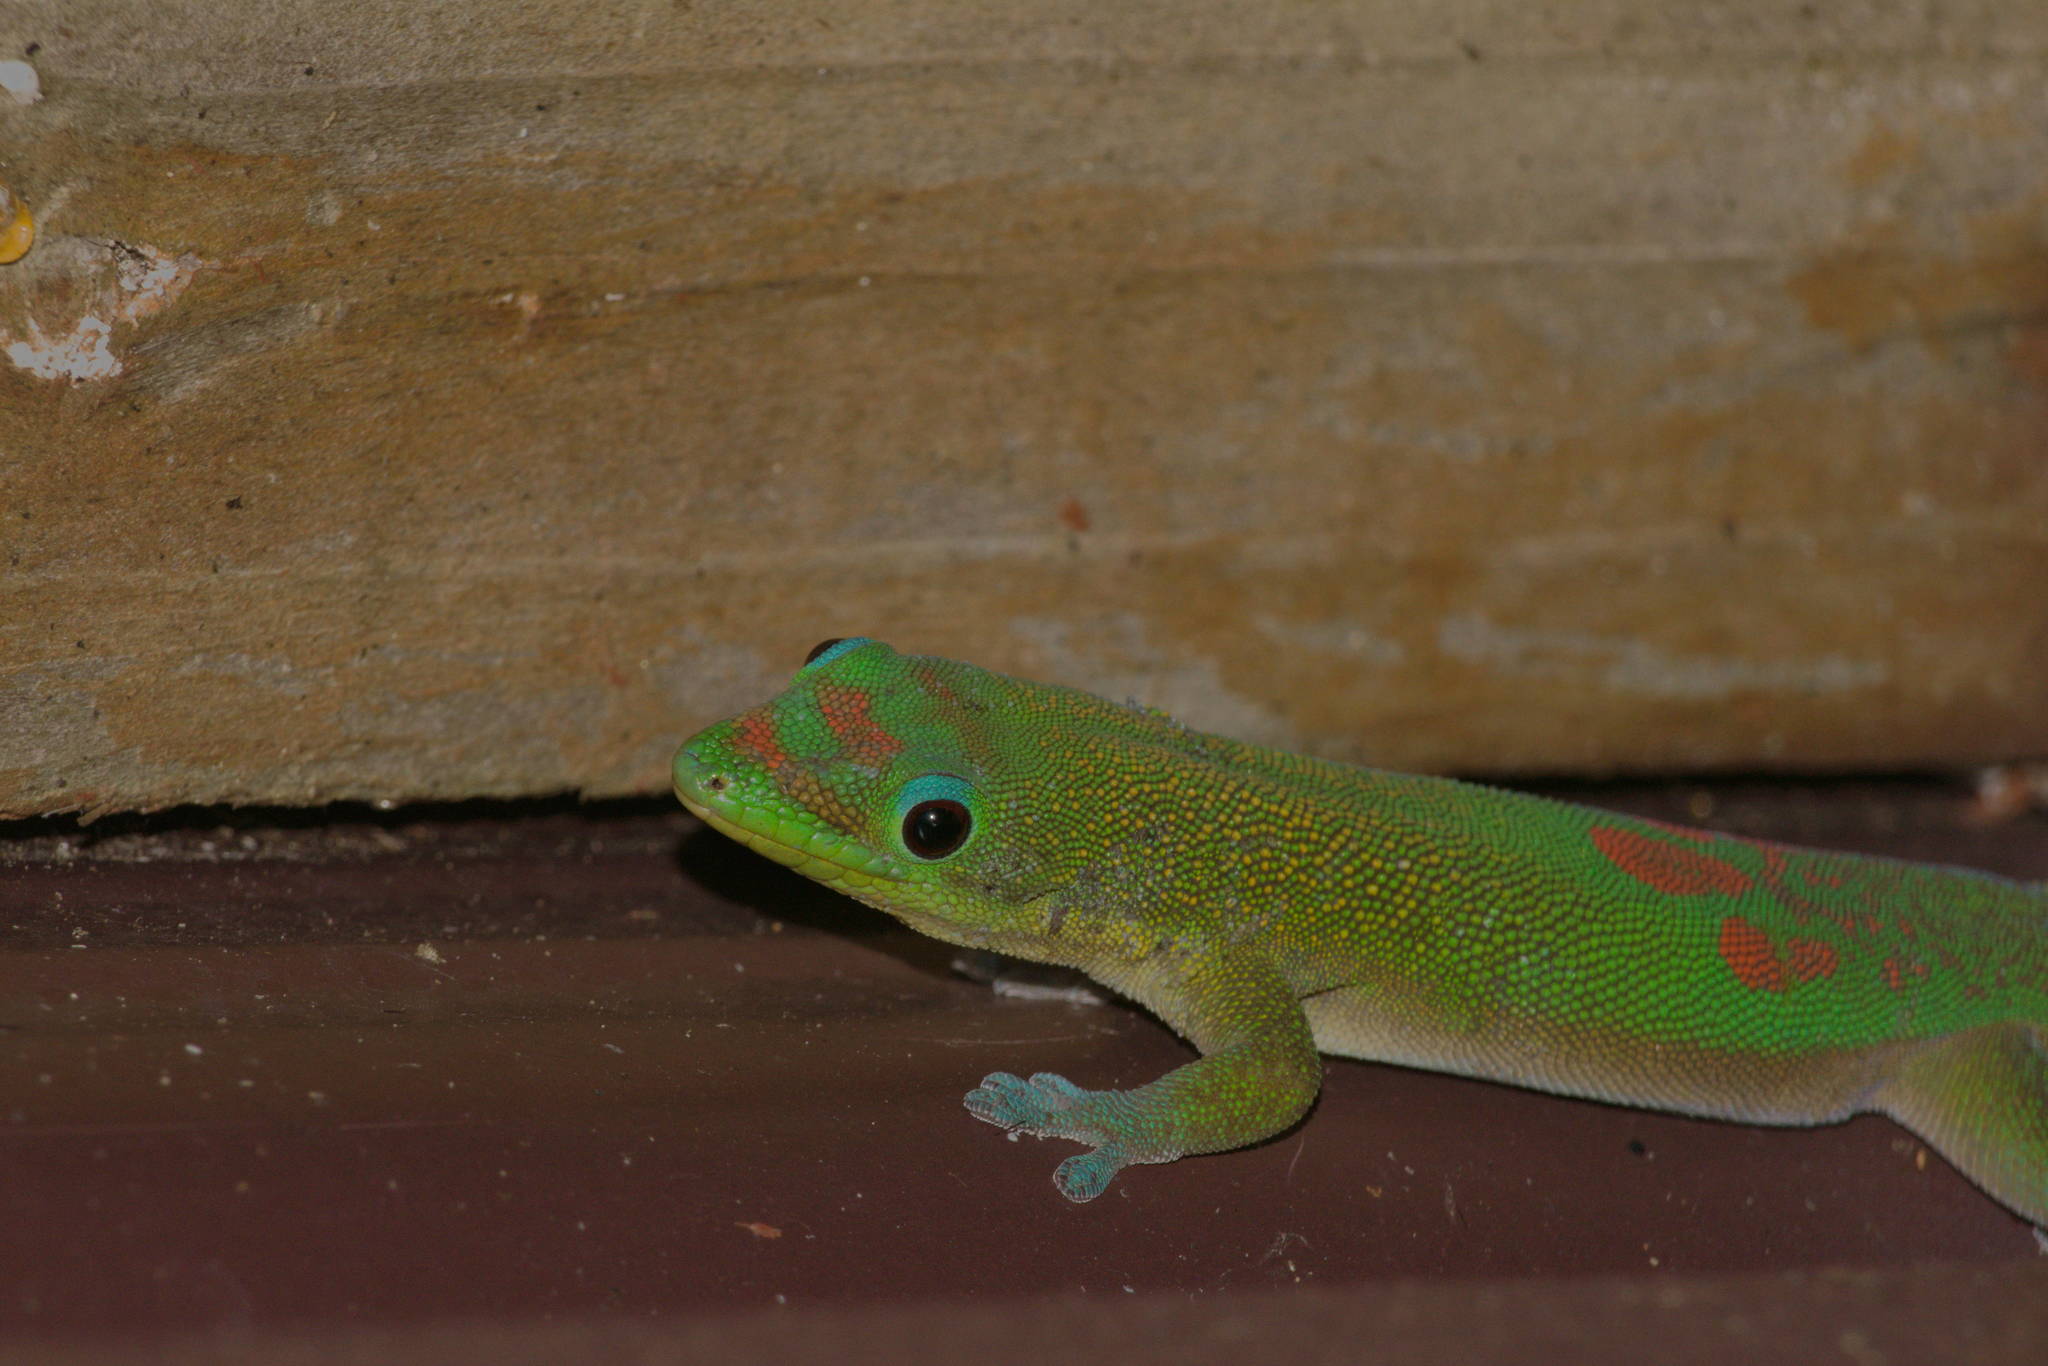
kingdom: Animalia
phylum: Chordata
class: Squamata
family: Gekkonidae
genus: Phelsuma
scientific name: Phelsuma laticauda
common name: Gold dust day gecko
